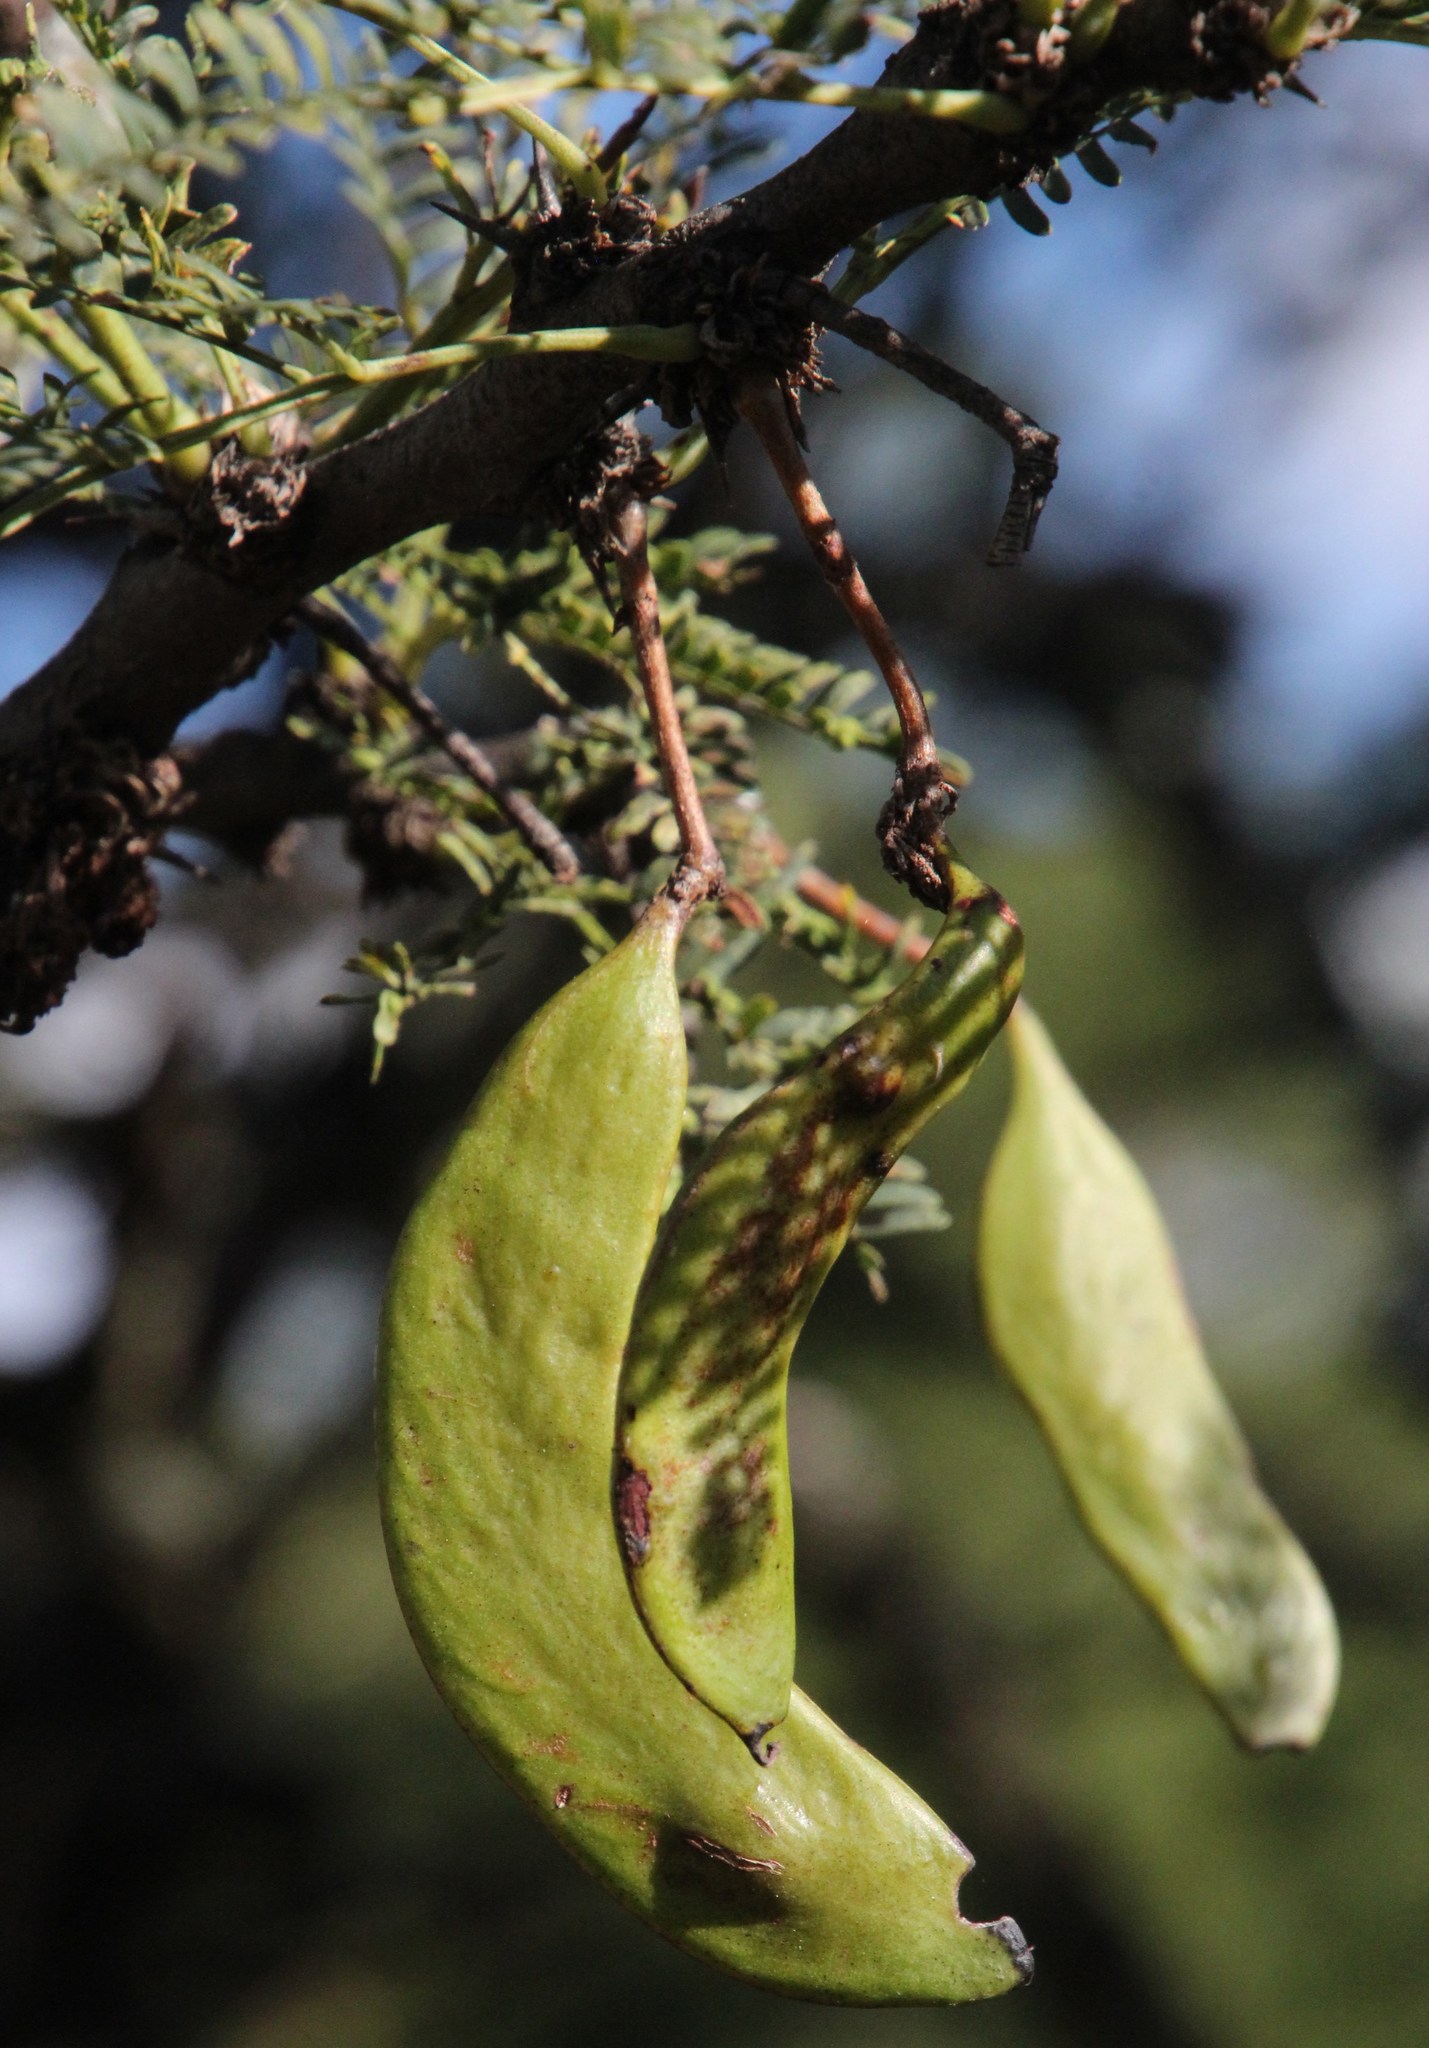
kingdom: Plantae
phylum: Tracheophyta
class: Magnoliopsida
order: Fabales
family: Fabaceae
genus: Vachellia
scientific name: Vachellia robusta
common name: Ankle thorn
